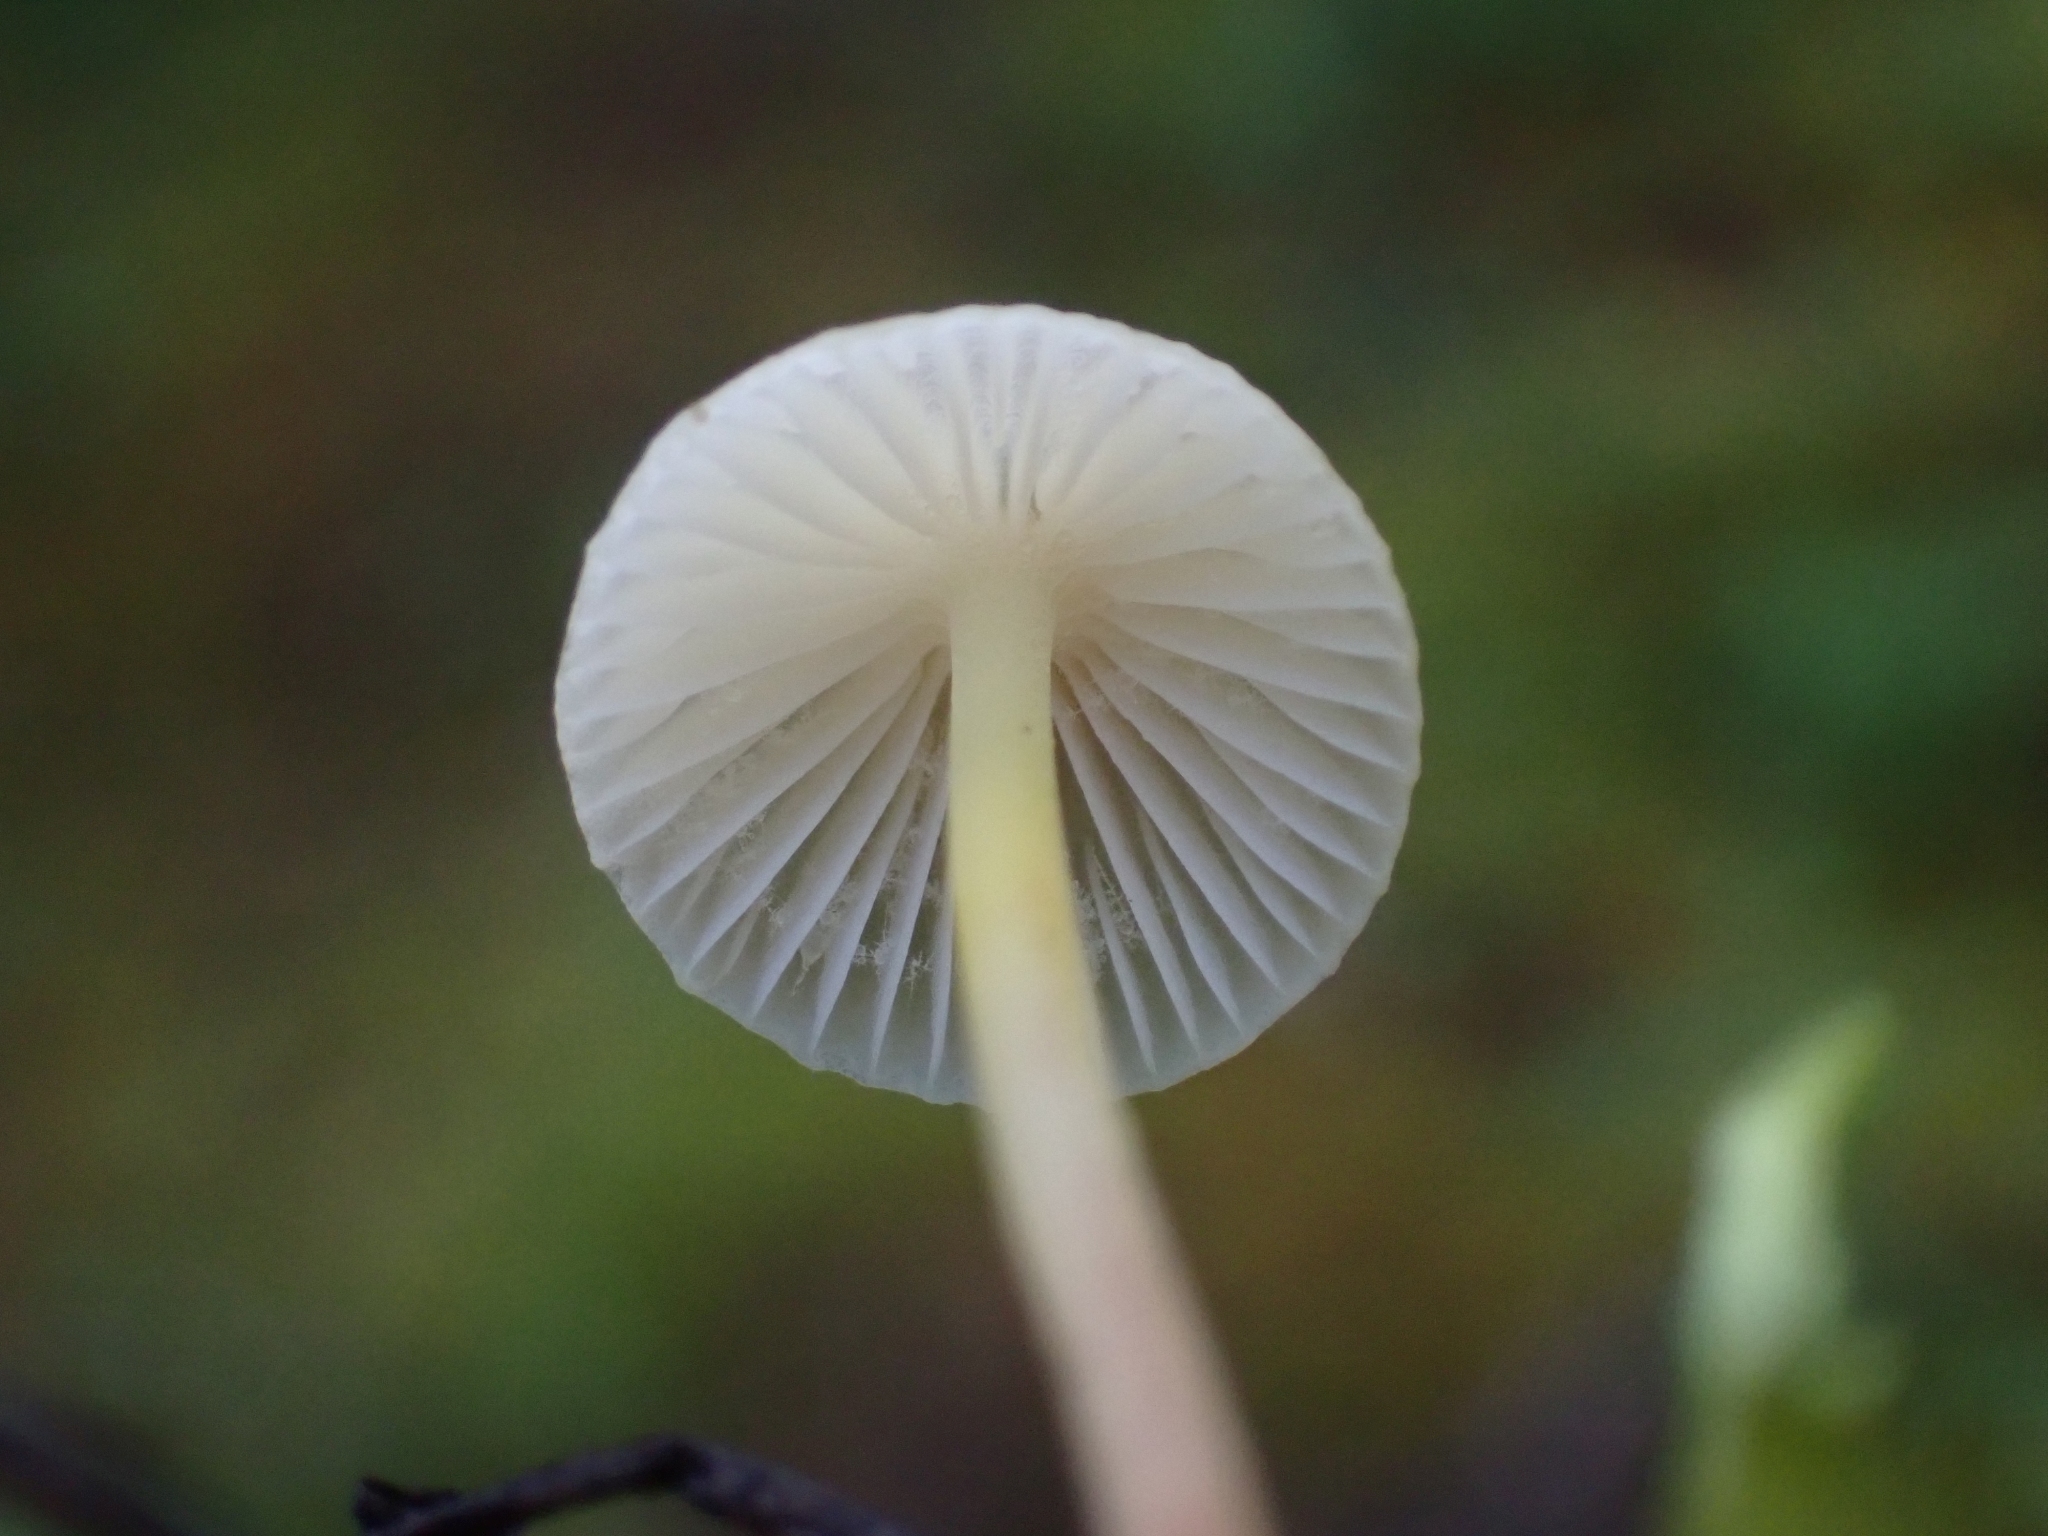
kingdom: Fungi
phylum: Basidiomycota
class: Agaricomycetes
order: Agaricales
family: Mycenaceae
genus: Mycena
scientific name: Mycena epipterygia
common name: Yellowleg bonnet
